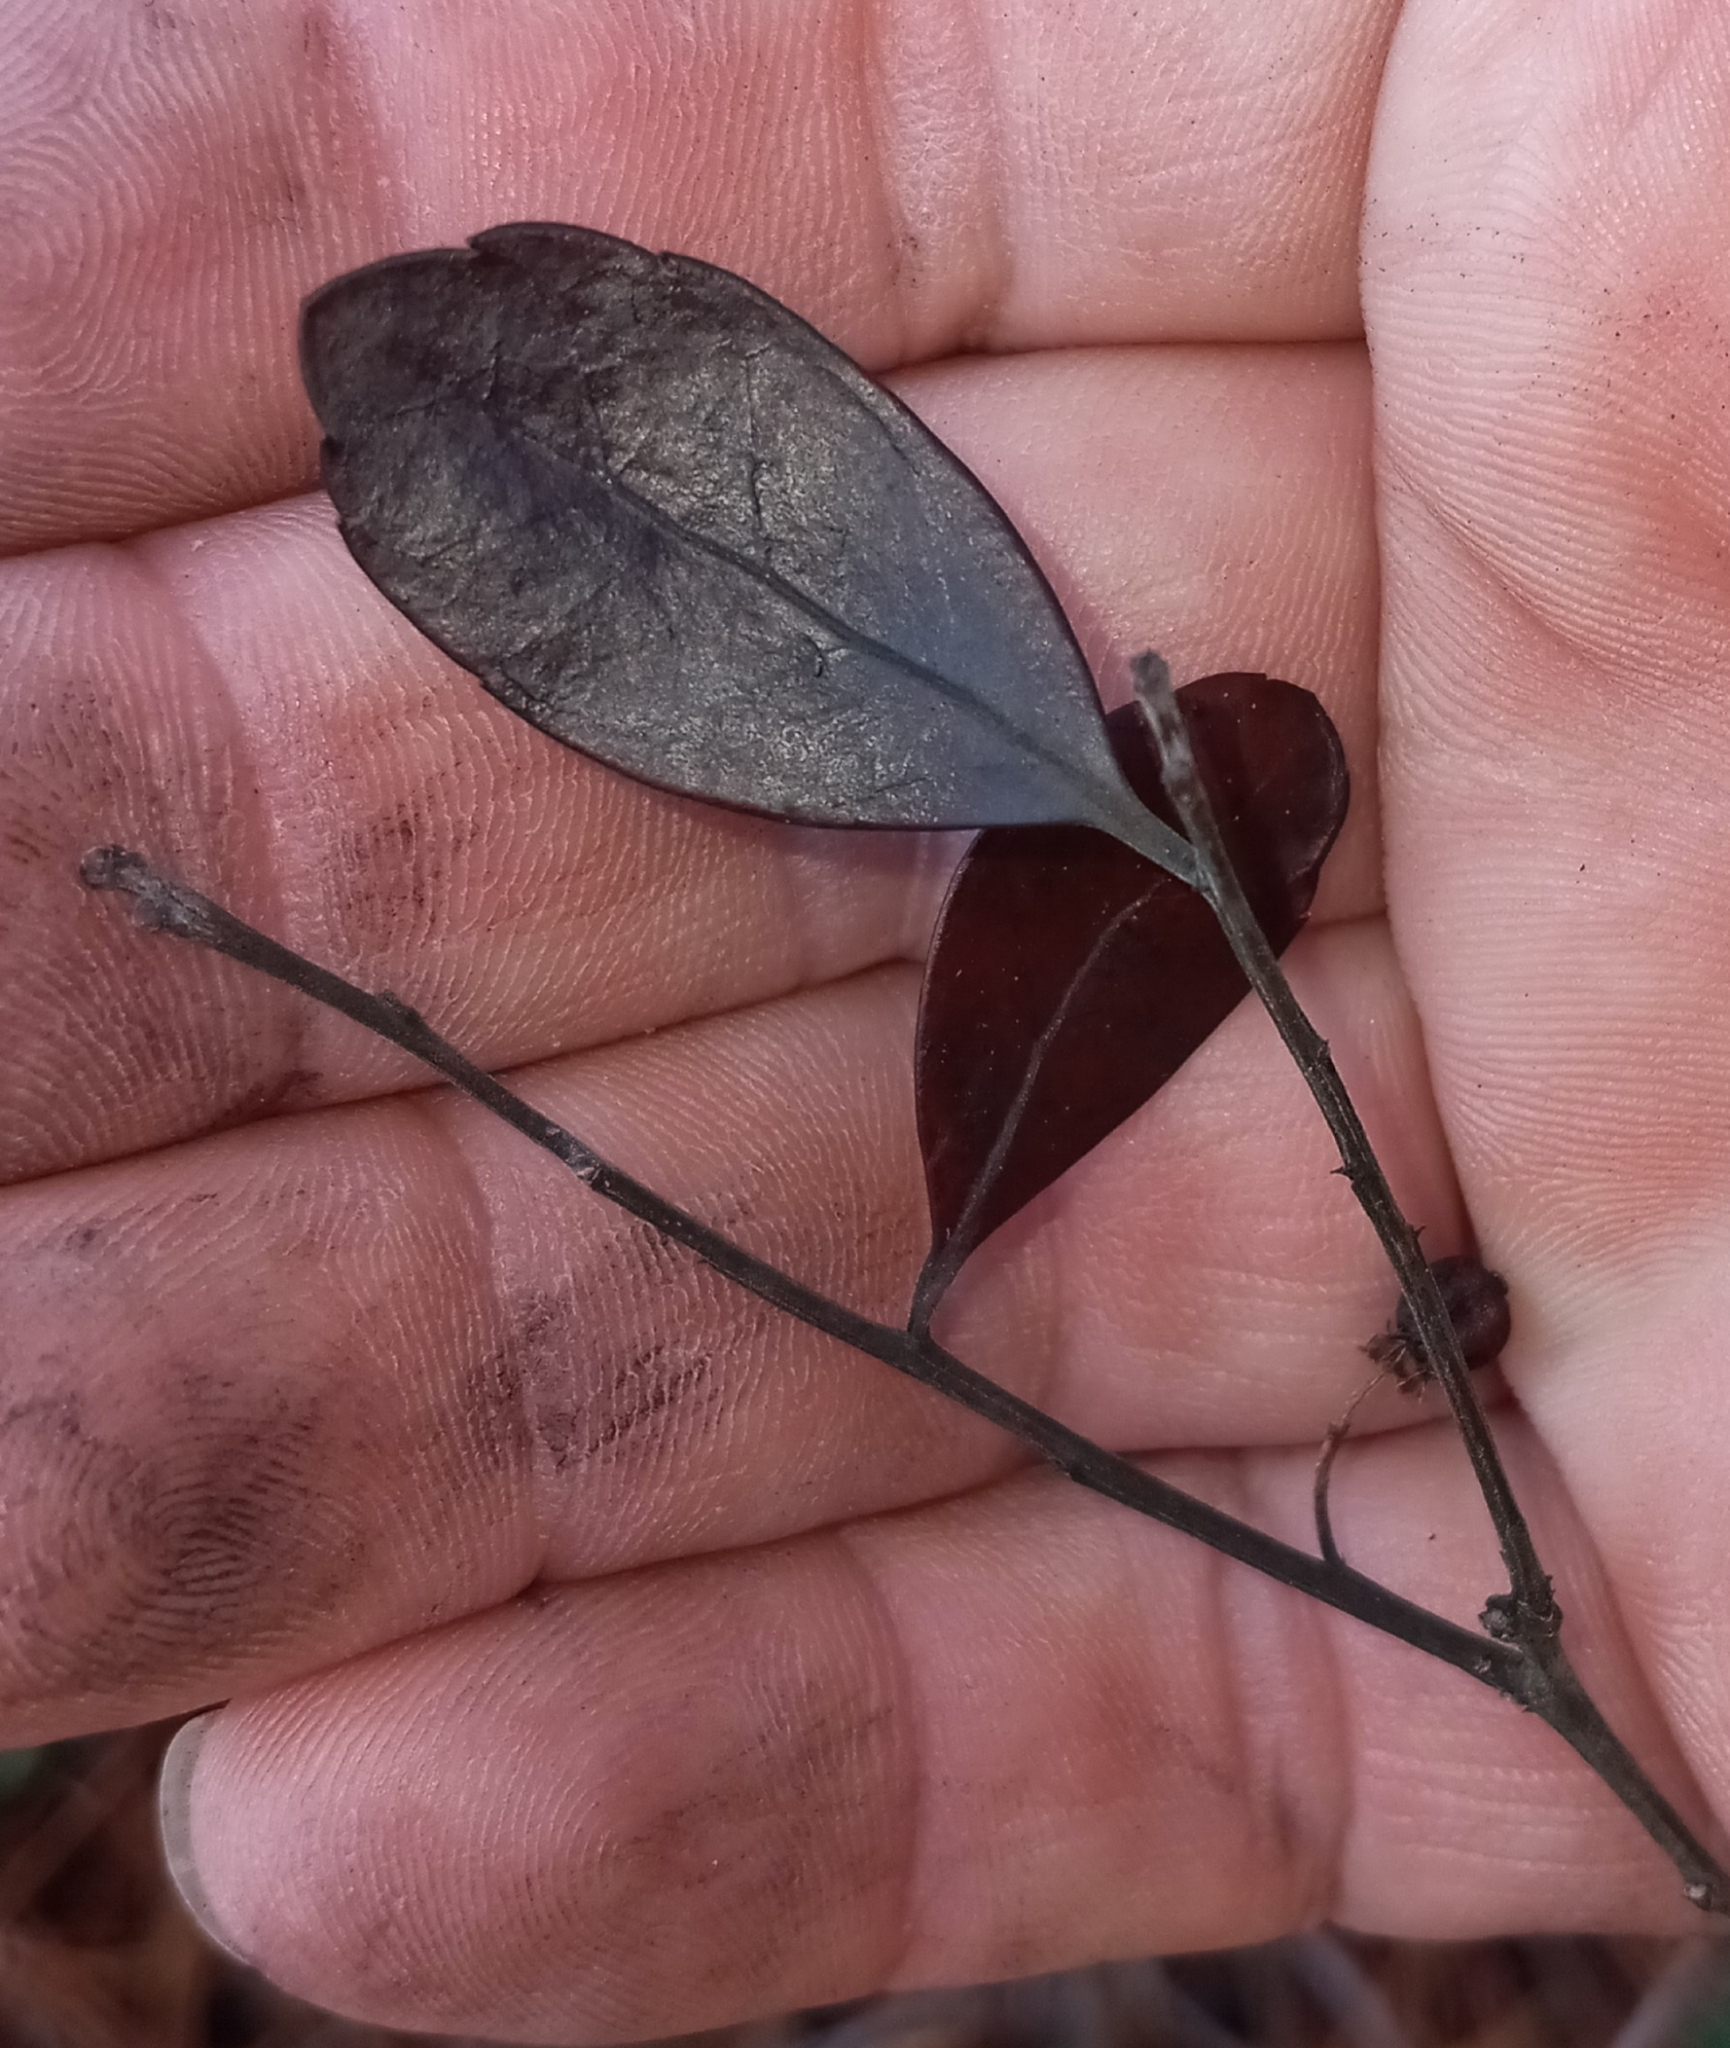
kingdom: Plantae
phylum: Tracheophyta
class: Magnoliopsida
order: Aquifoliales
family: Aquifoliaceae
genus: Ilex
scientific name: Ilex glabra
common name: Bitter gallberry
